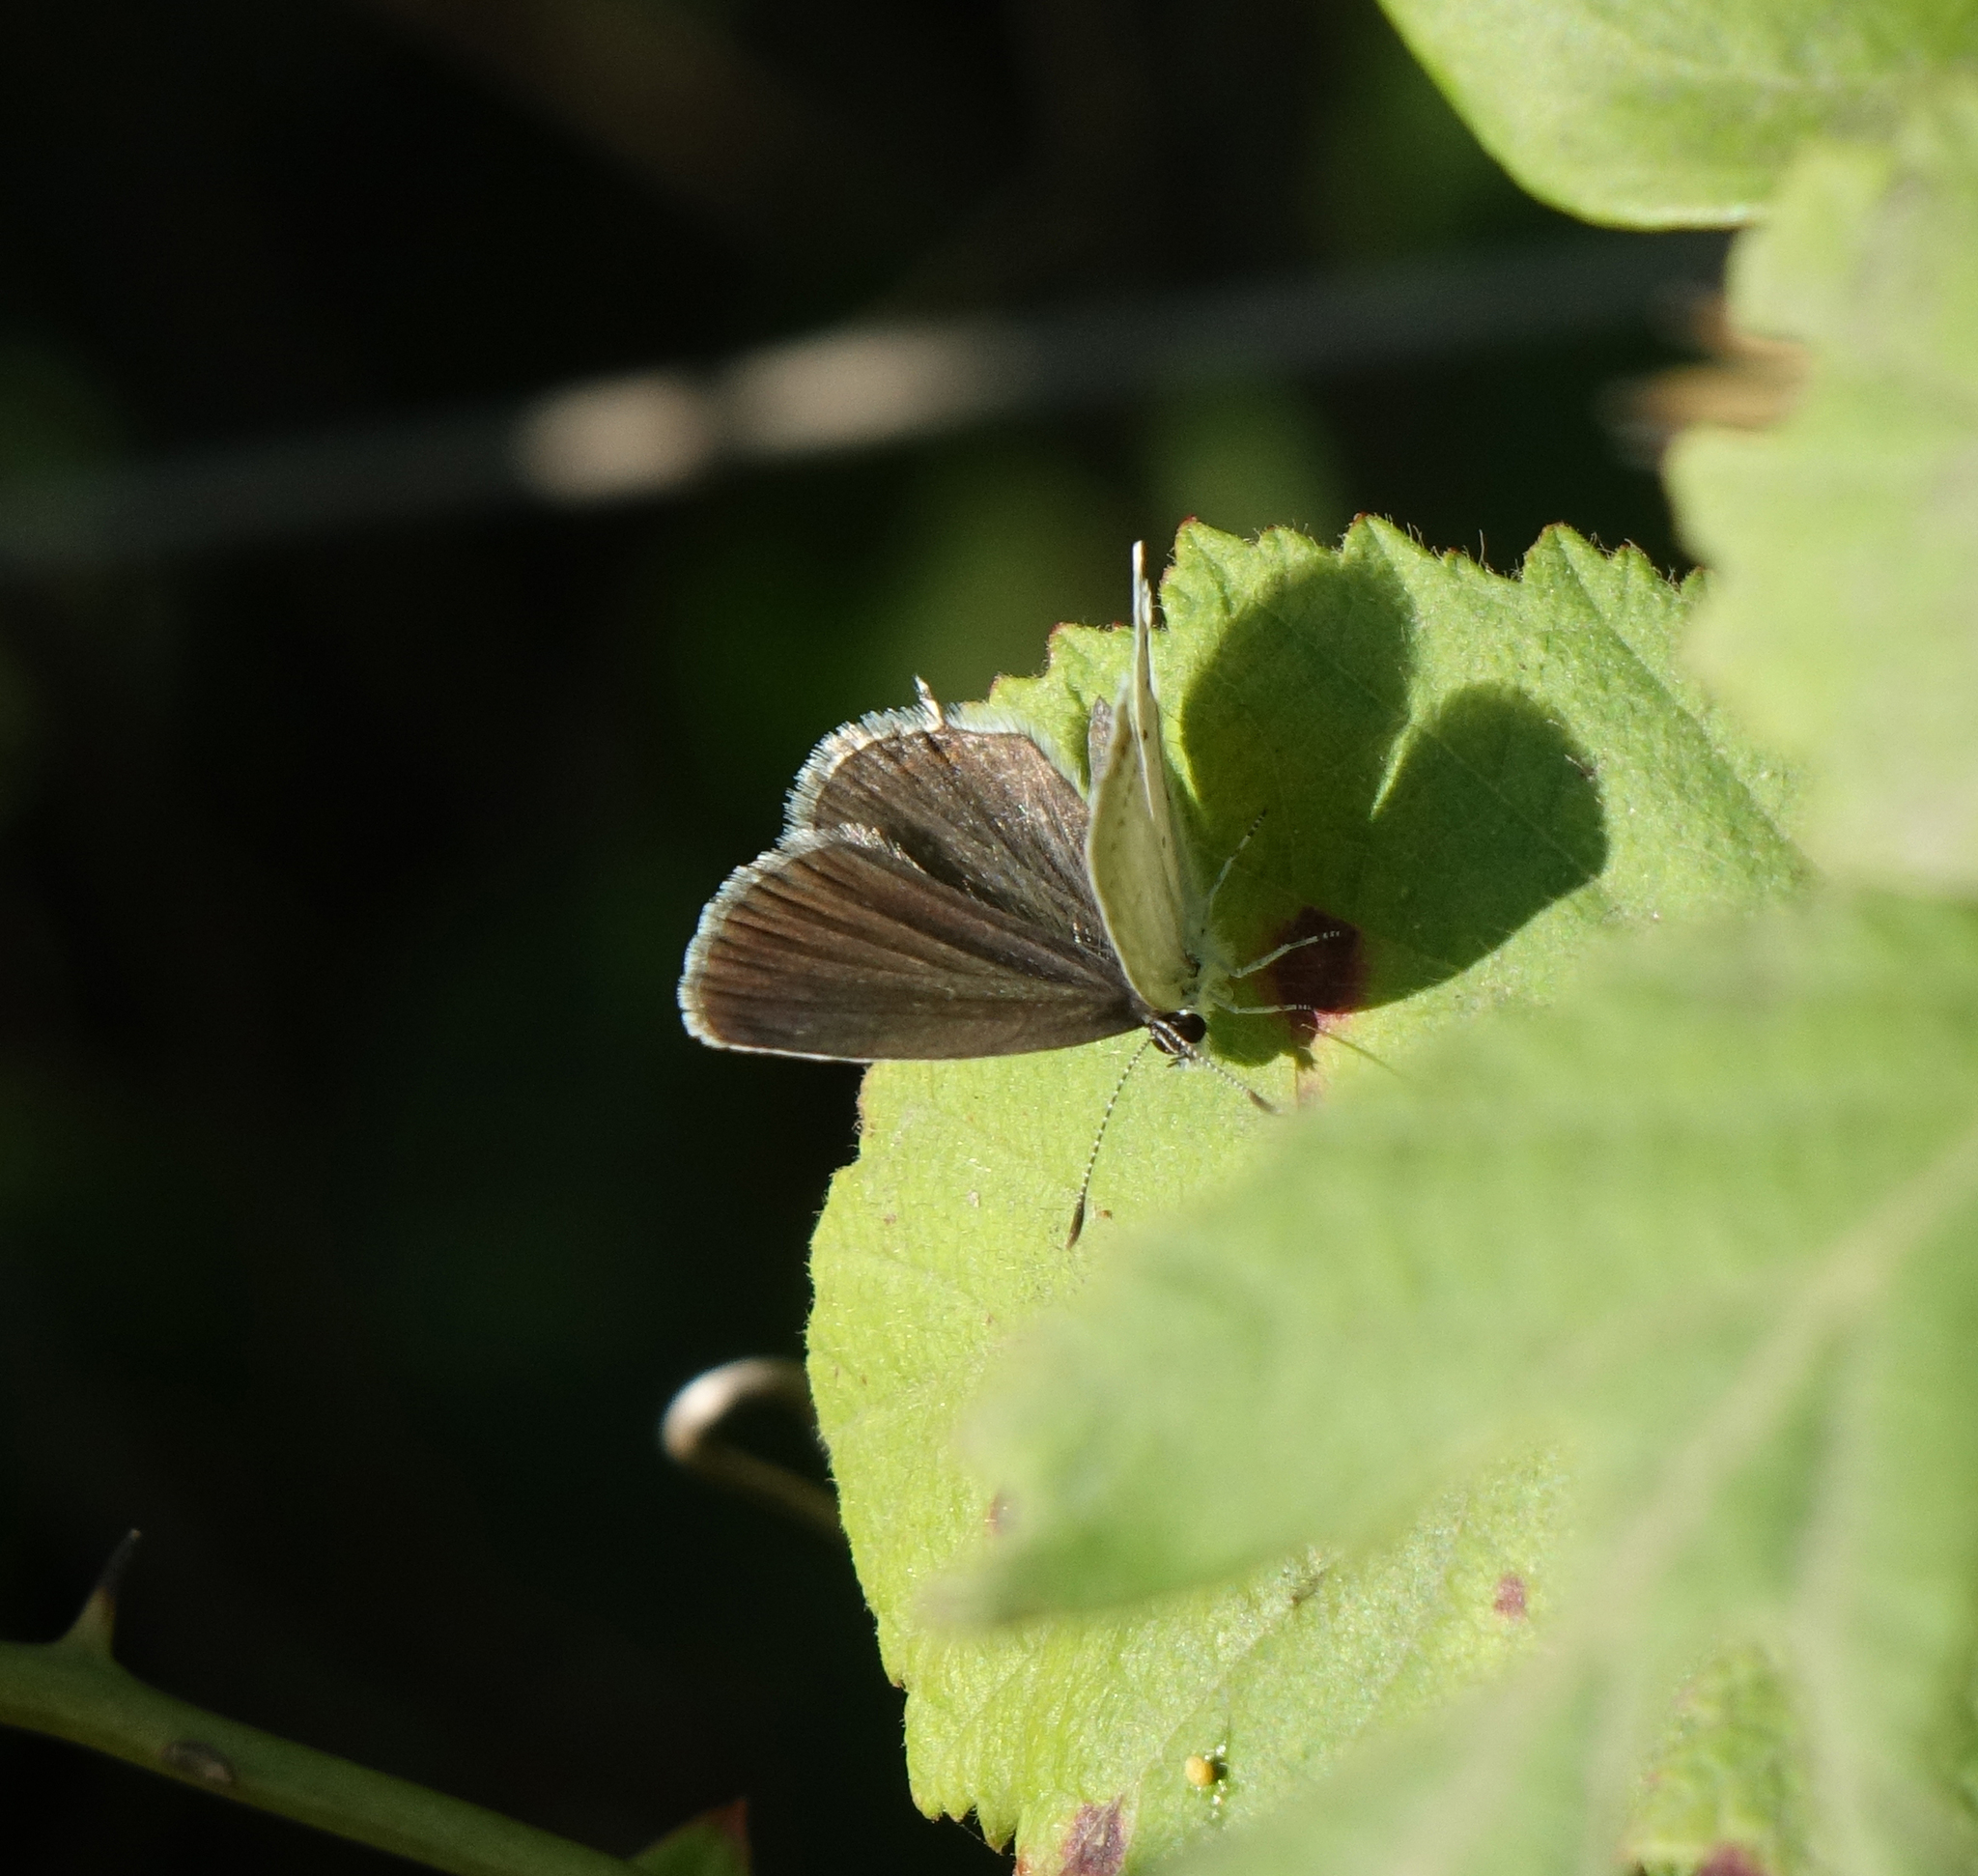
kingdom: Animalia
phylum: Arthropoda
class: Insecta
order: Lepidoptera
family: Lycaenidae
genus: Elkalyce
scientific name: Elkalyce argiades
